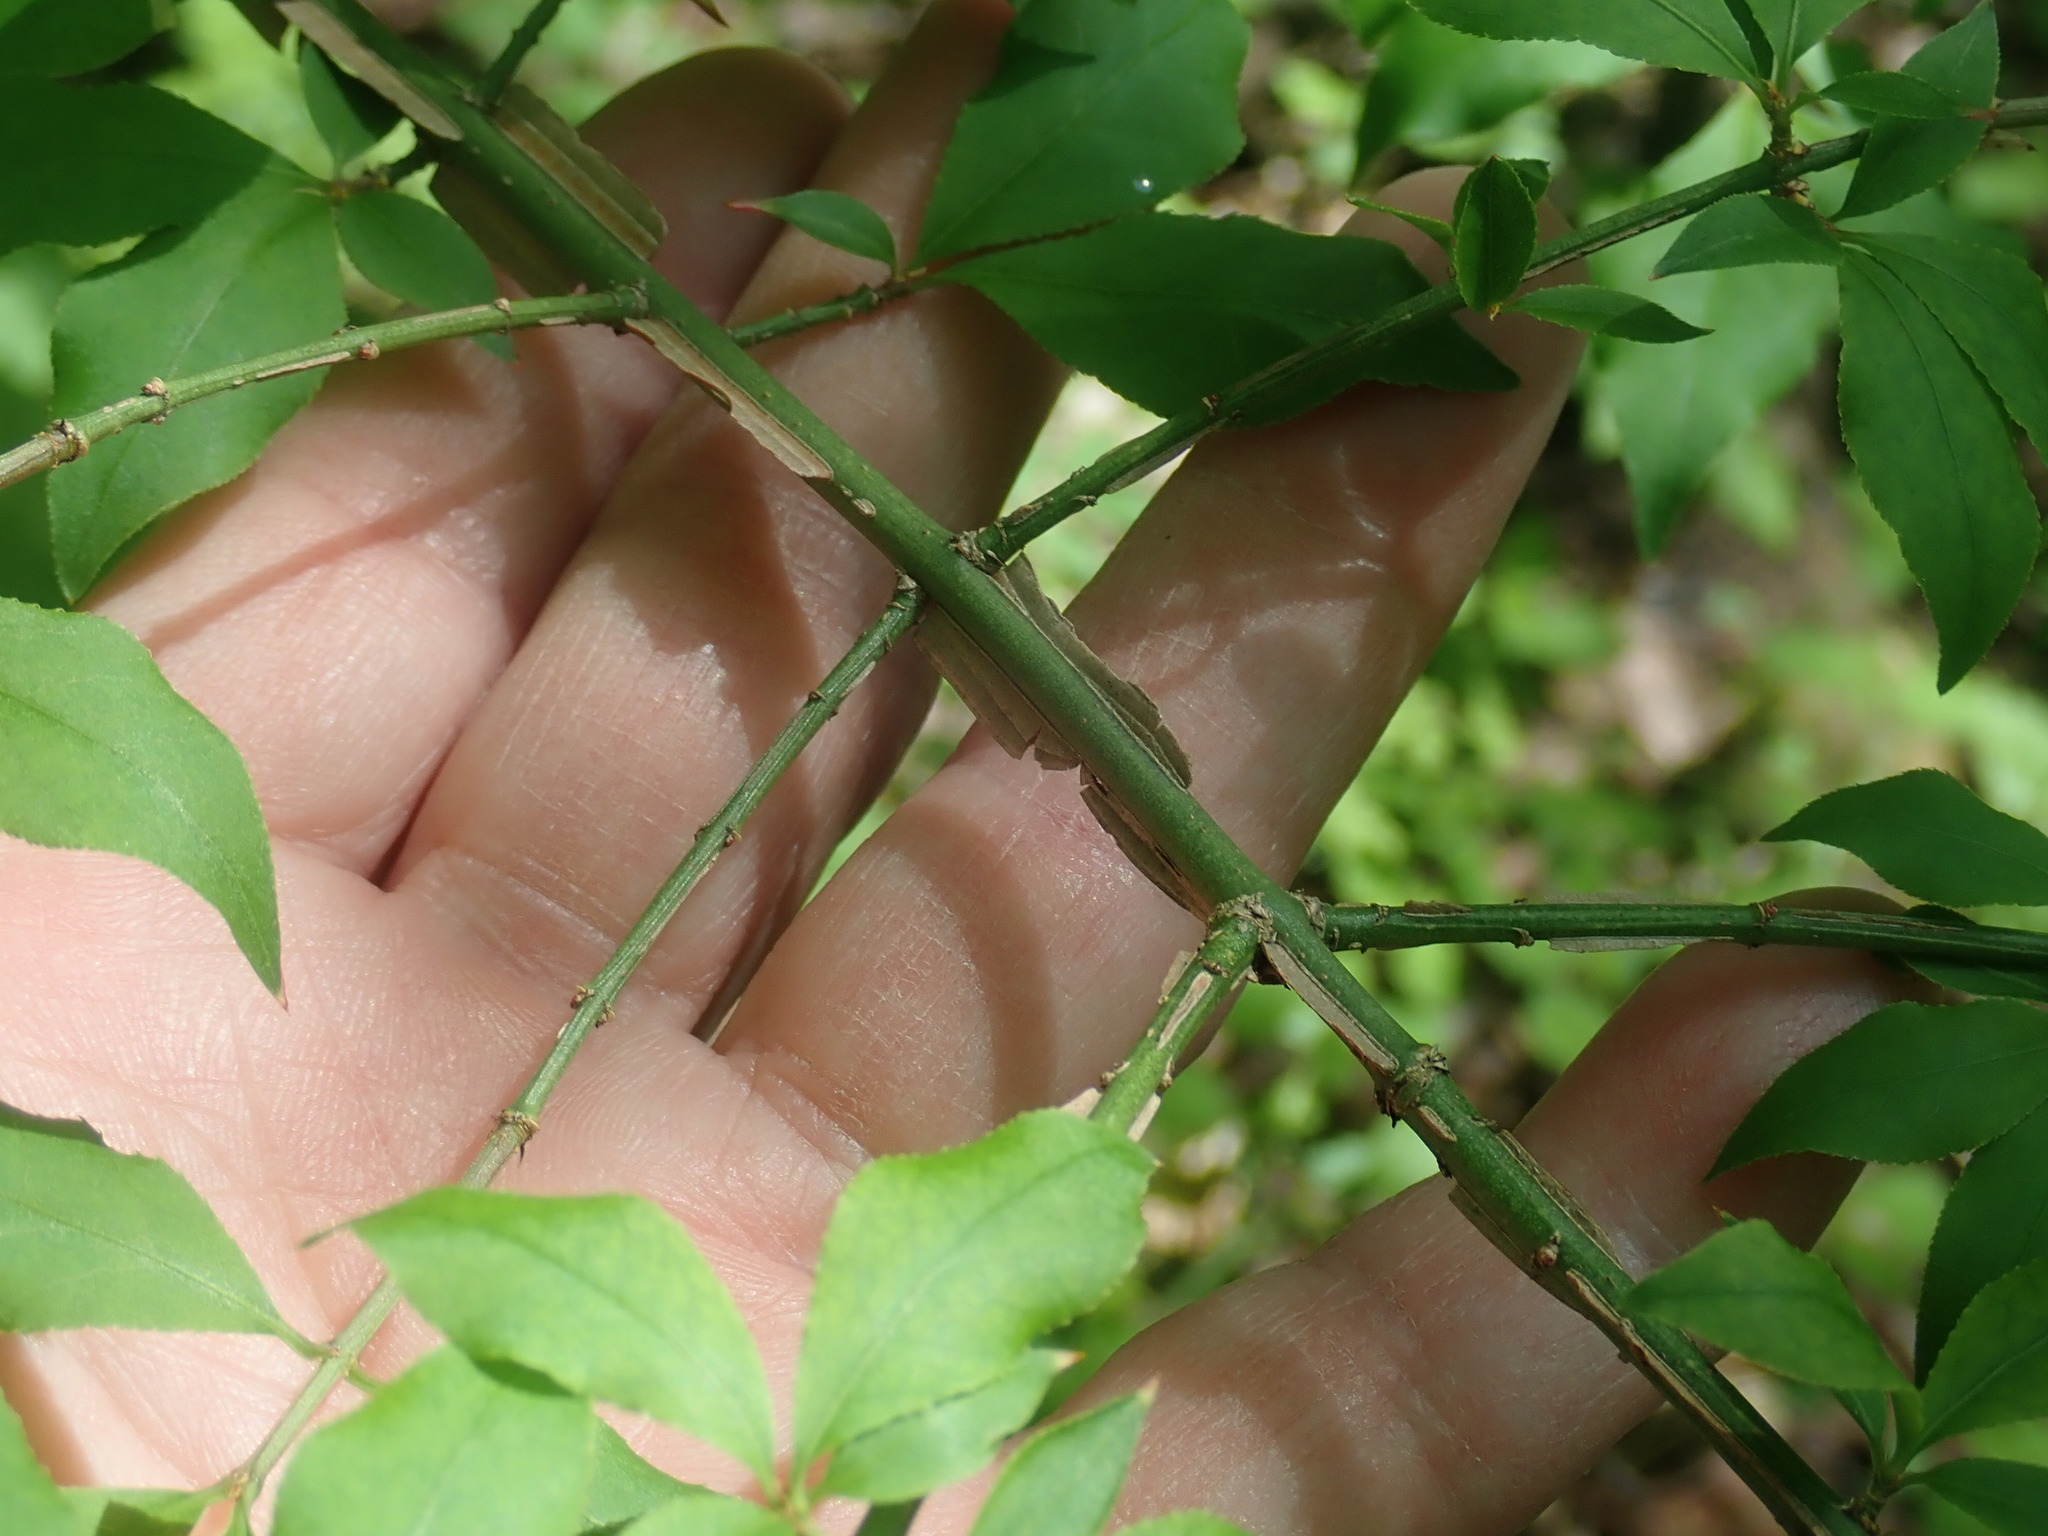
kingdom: Plantae
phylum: Tracheophyta
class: Magnoliopsida
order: Celastrales
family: Celastraceae
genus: Euonymus
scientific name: Euonymus alatus
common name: Winged euonymus
